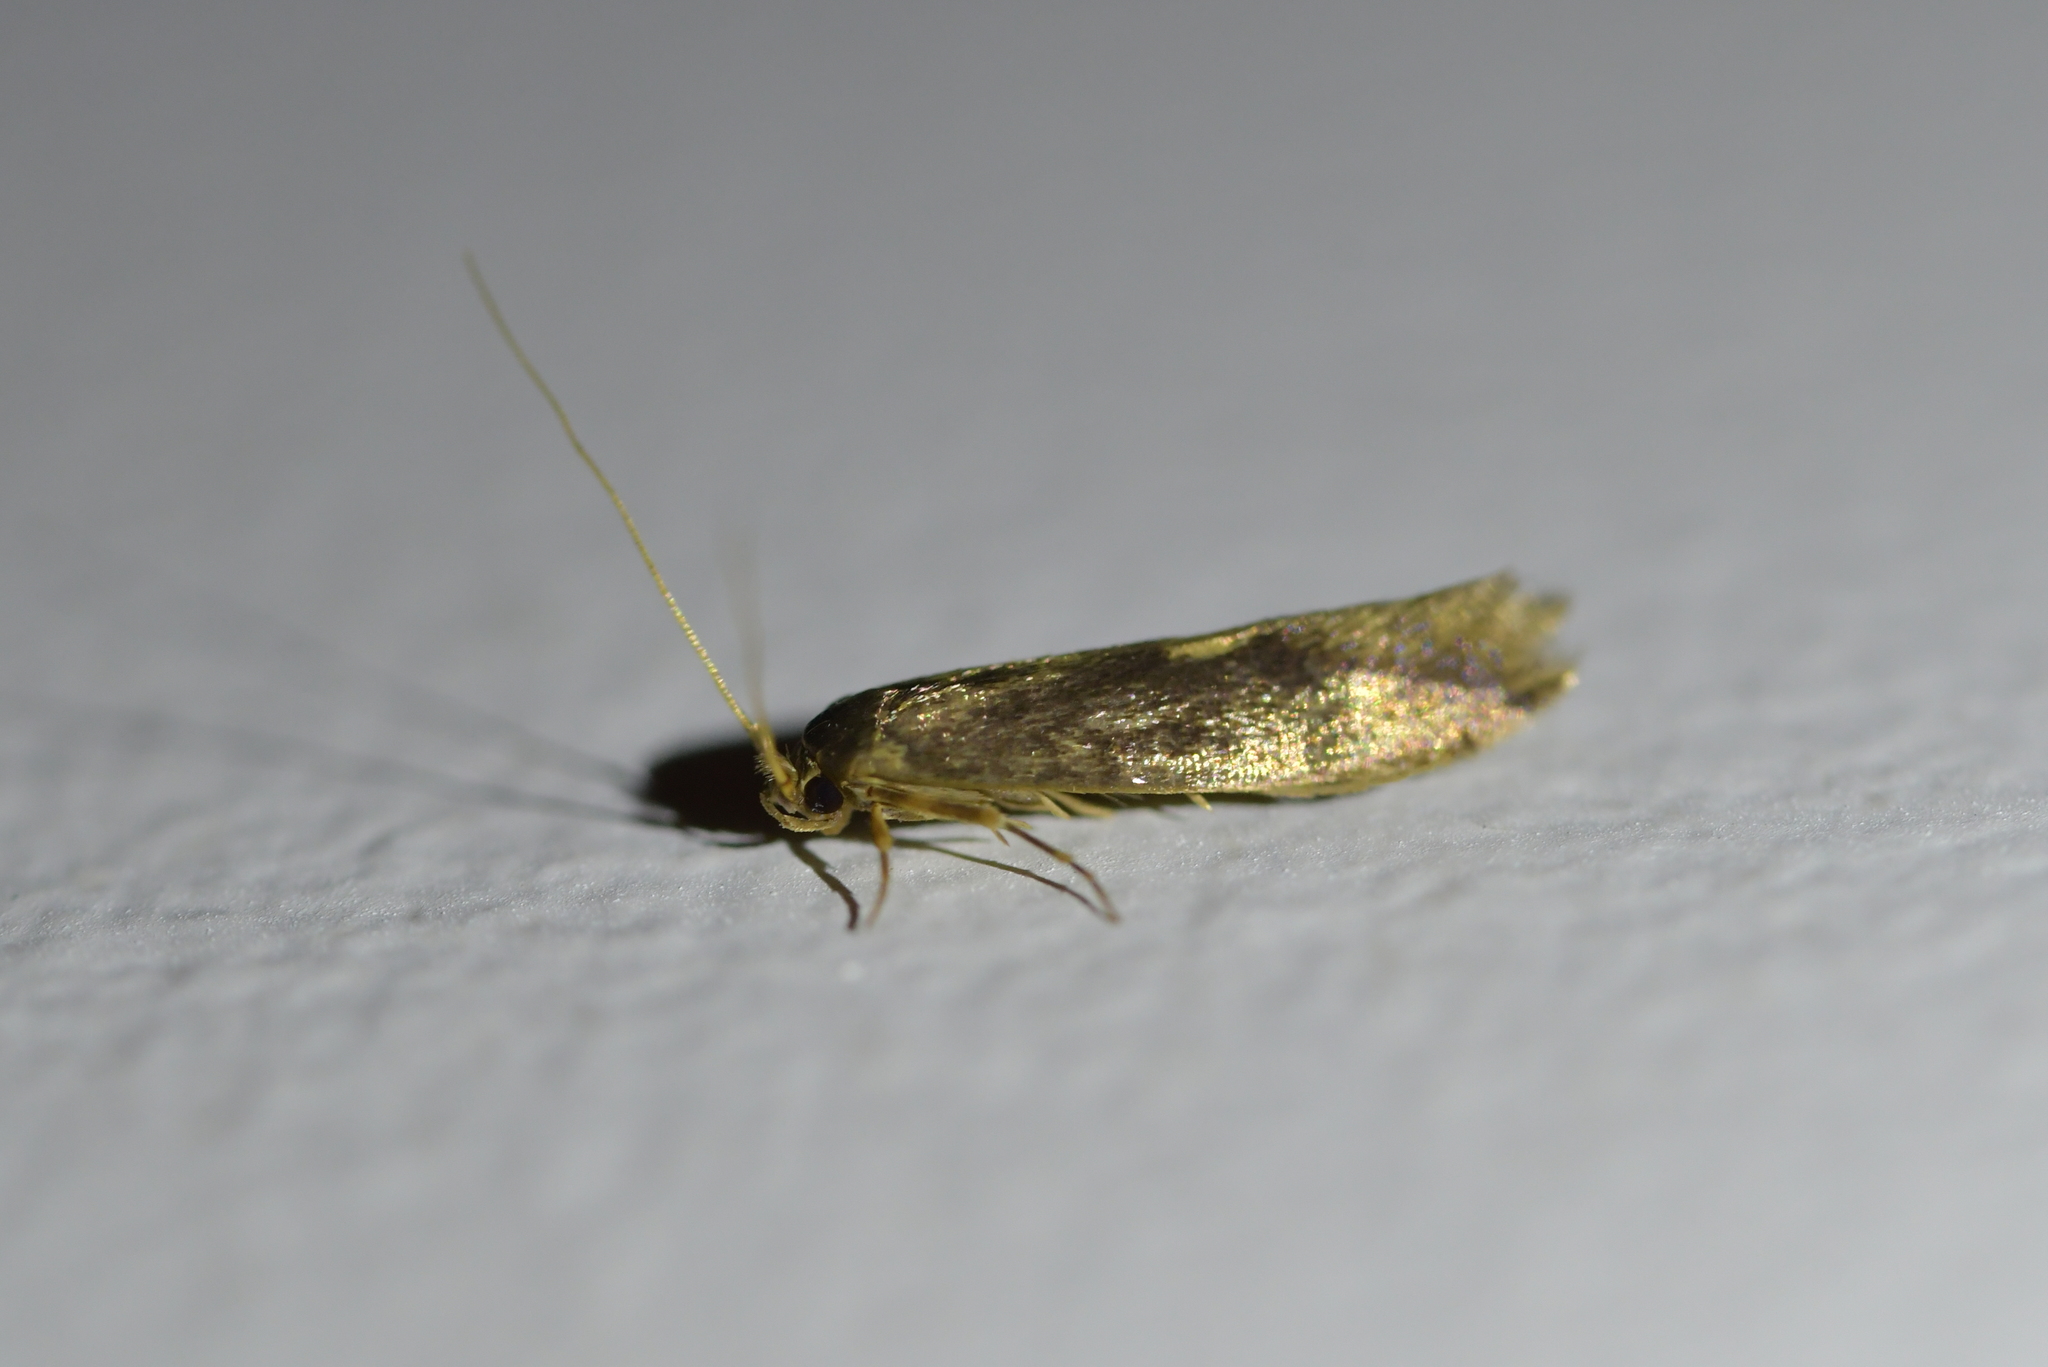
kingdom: Animalia
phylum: Arthropoda
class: Insecta
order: Lepidoptera
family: Tineidae
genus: Opogona
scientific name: Opogona omoscopa
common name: Moth
